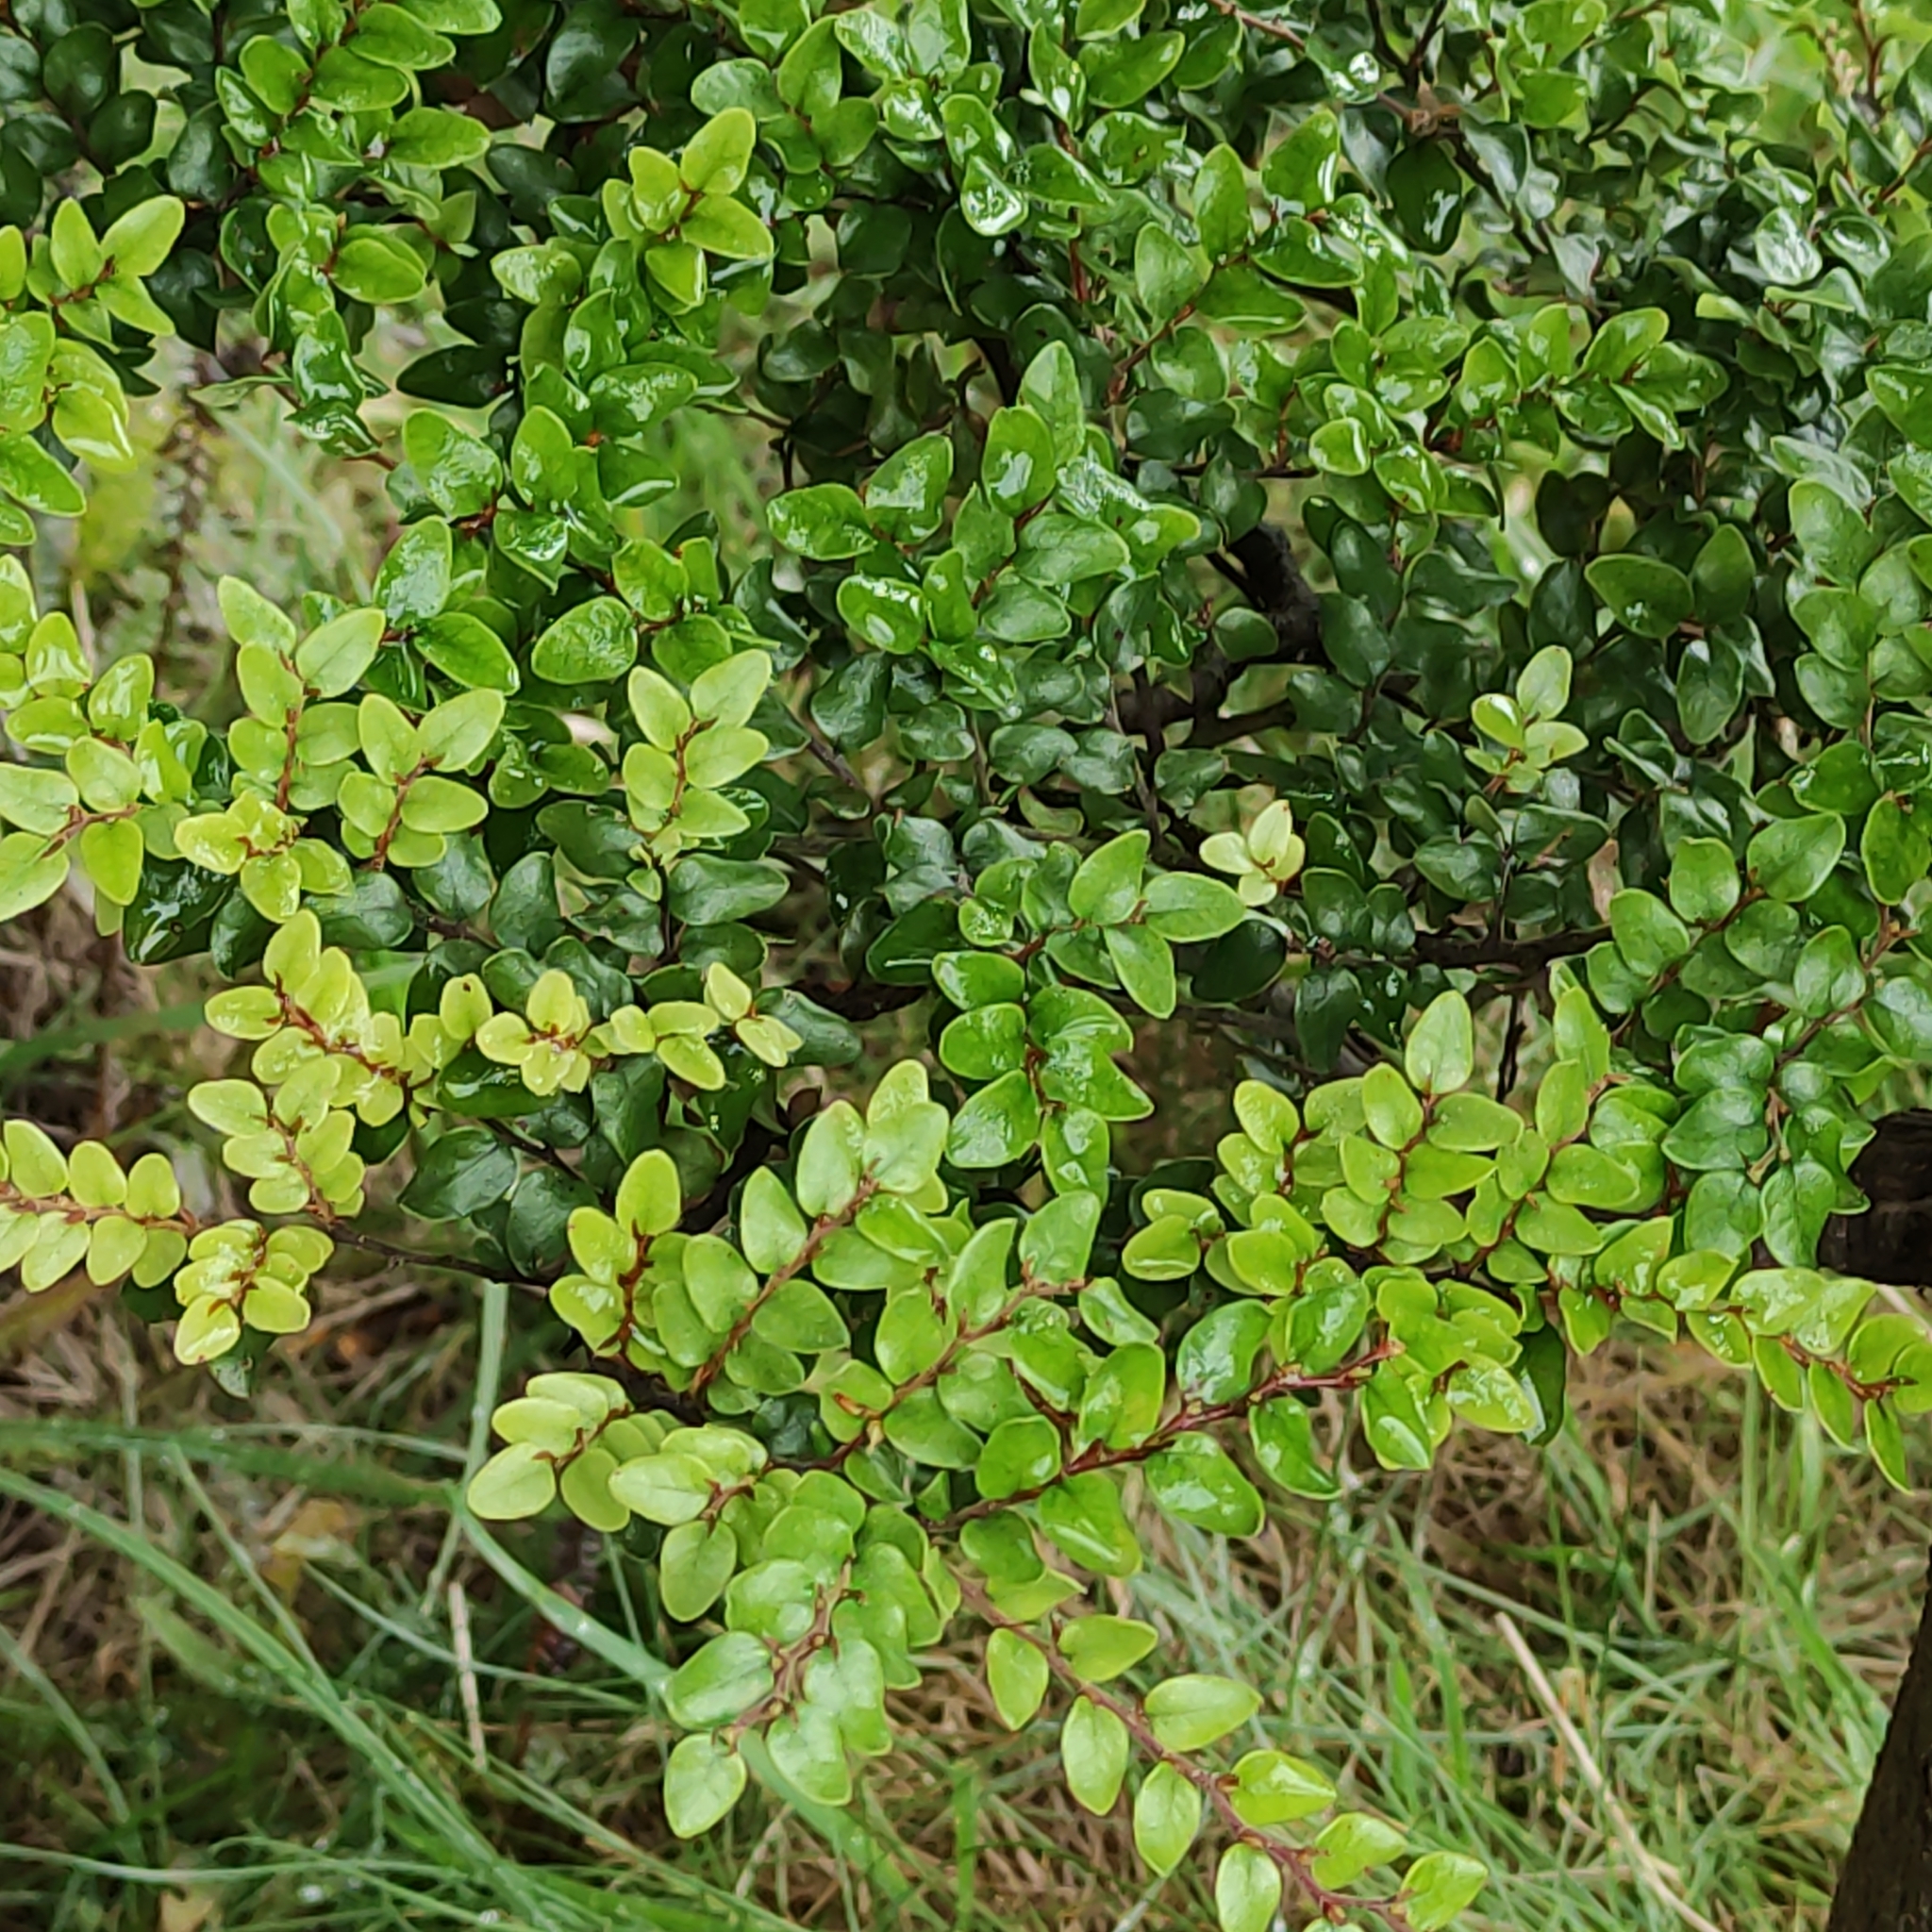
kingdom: Plantae
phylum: Tracheophyta
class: Magnoliopsida
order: Fagales
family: Nothofagaceae
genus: Nothofagus
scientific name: Nothofagus cliffortioides
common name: Mountain beech
